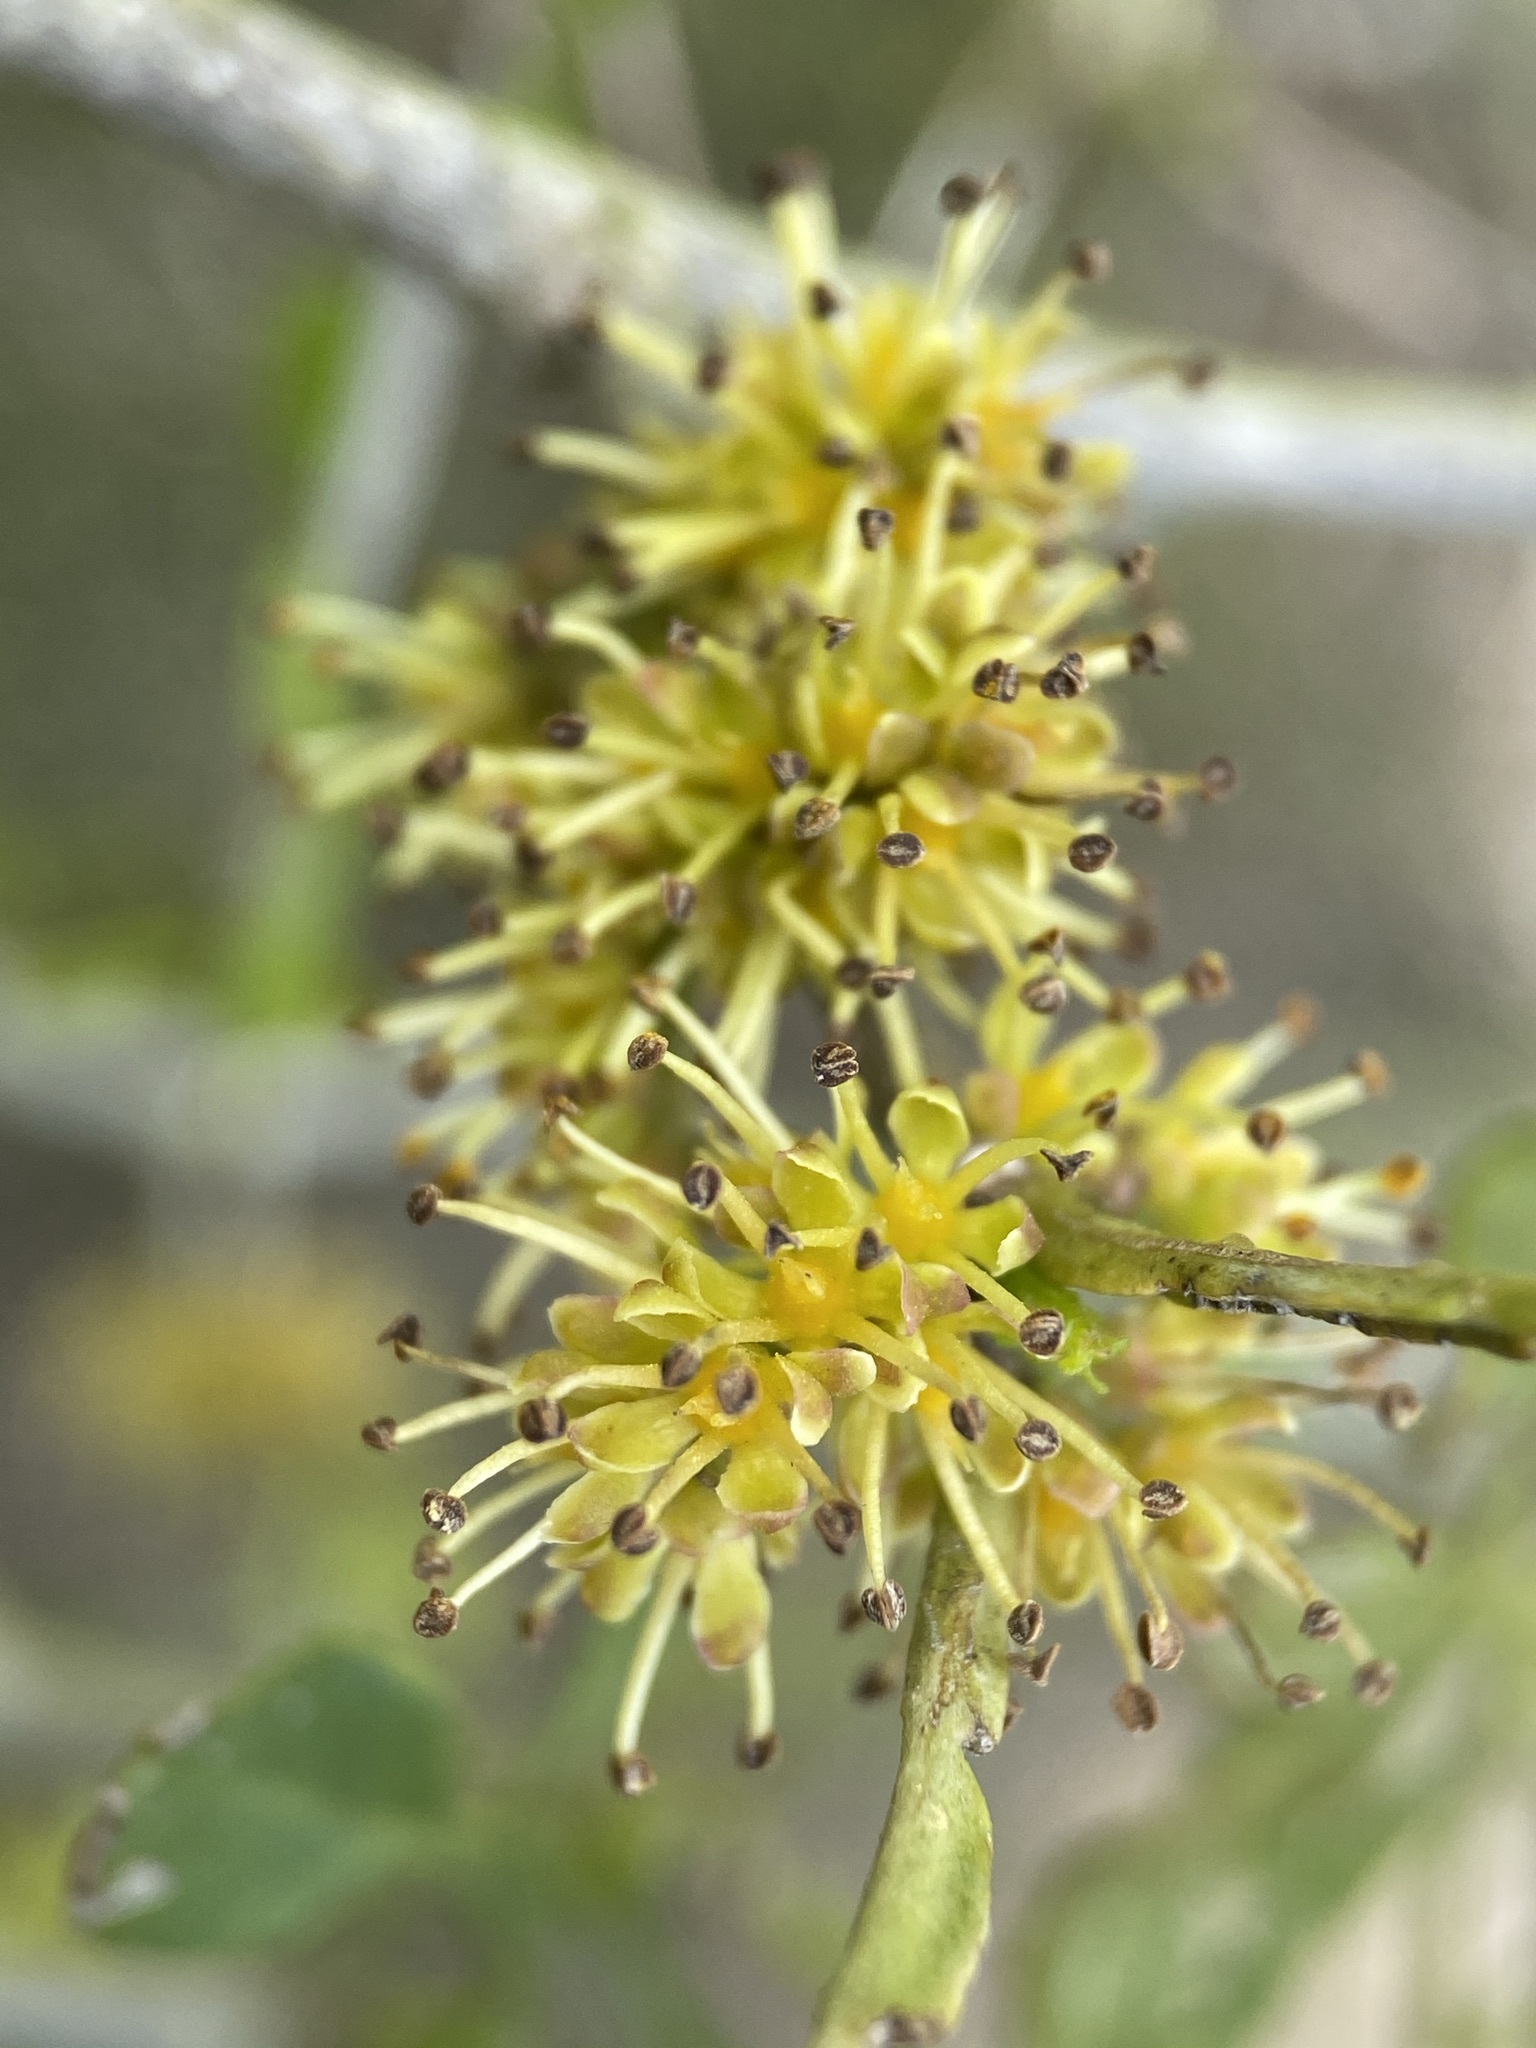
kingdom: Plantae
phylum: Tracheophyta
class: Magnoliopsida
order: Sapindales
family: Rutaceae
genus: Zanthoxylum
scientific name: Zanthoxylum fagara
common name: Lime prickly-ash
